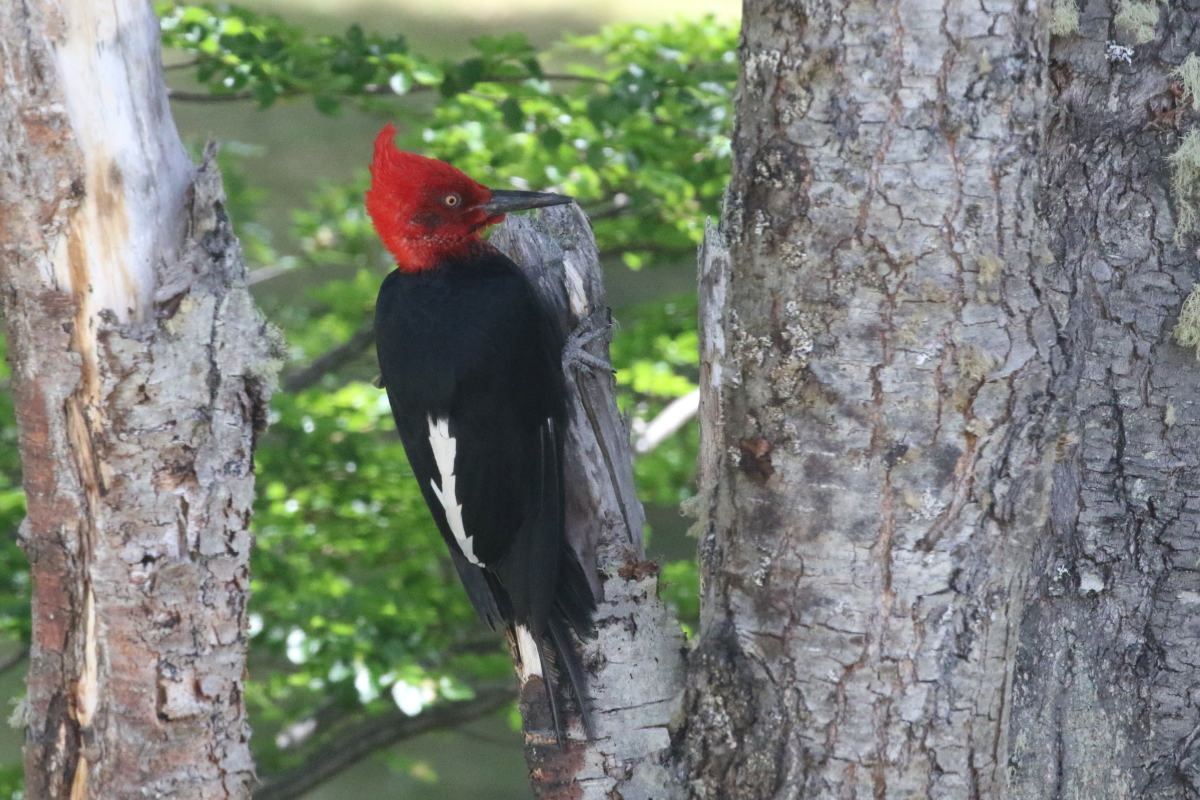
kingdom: Animalia
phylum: Chordata
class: Aves
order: Piciformes
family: Picidae
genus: Campephilus
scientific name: Campephilus magellanicus
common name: Magellanic woodpecker
